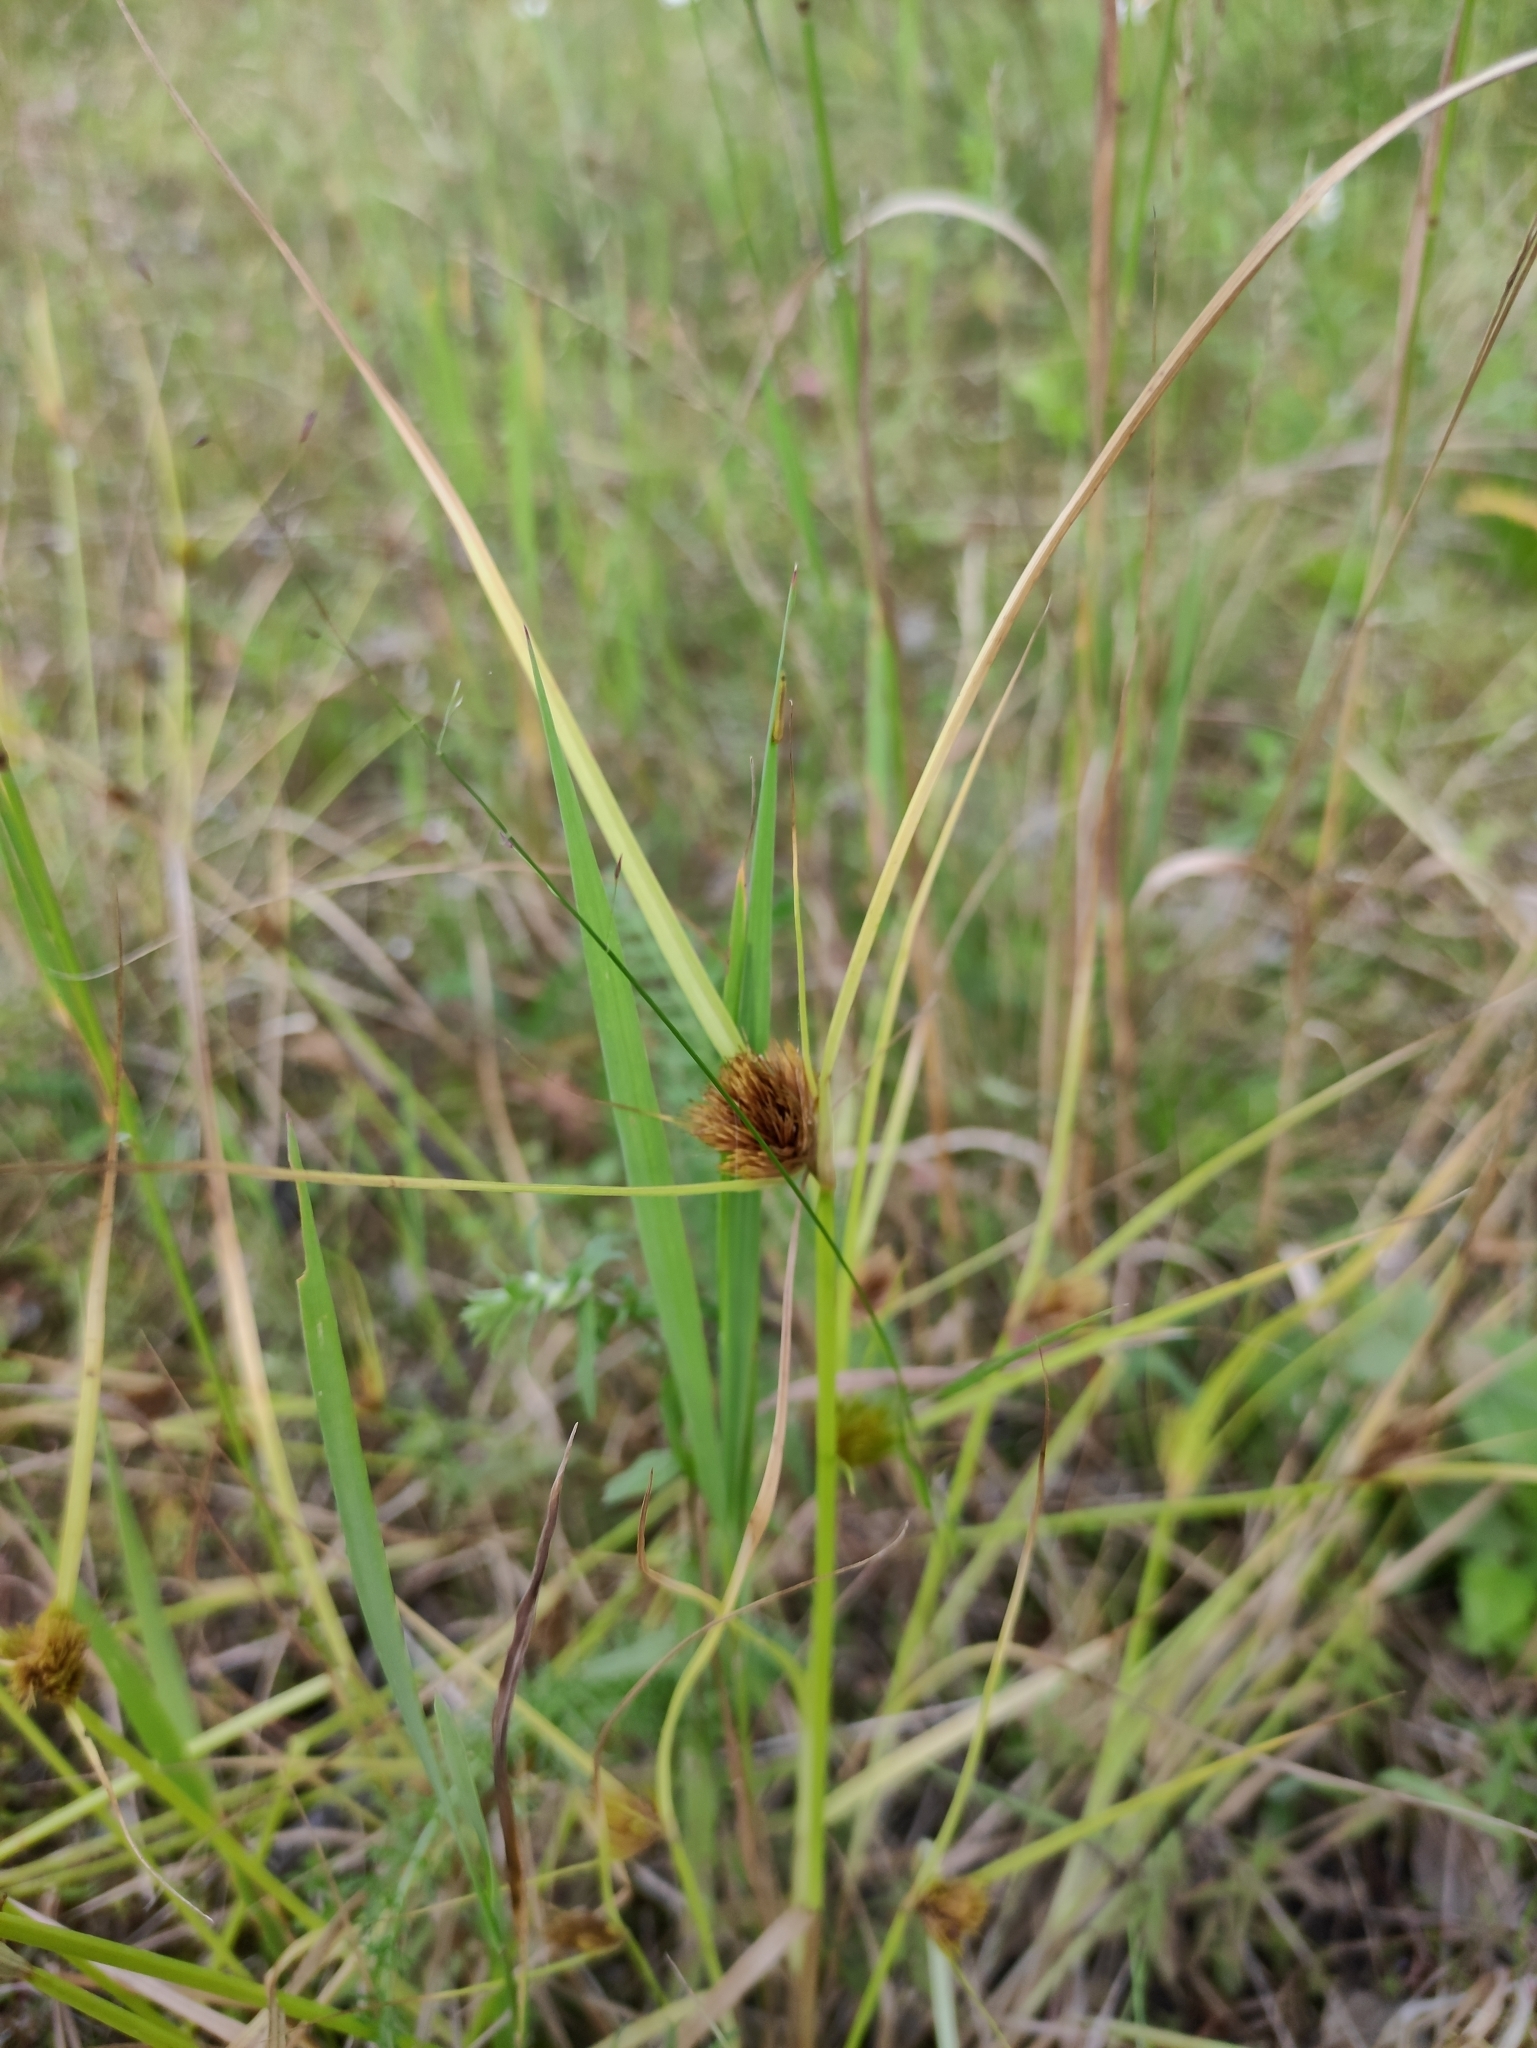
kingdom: Plantae
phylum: Tracheophyta
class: Liliopsida
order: Poales
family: Cyperaceae
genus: Carex
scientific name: Carex bohemica
